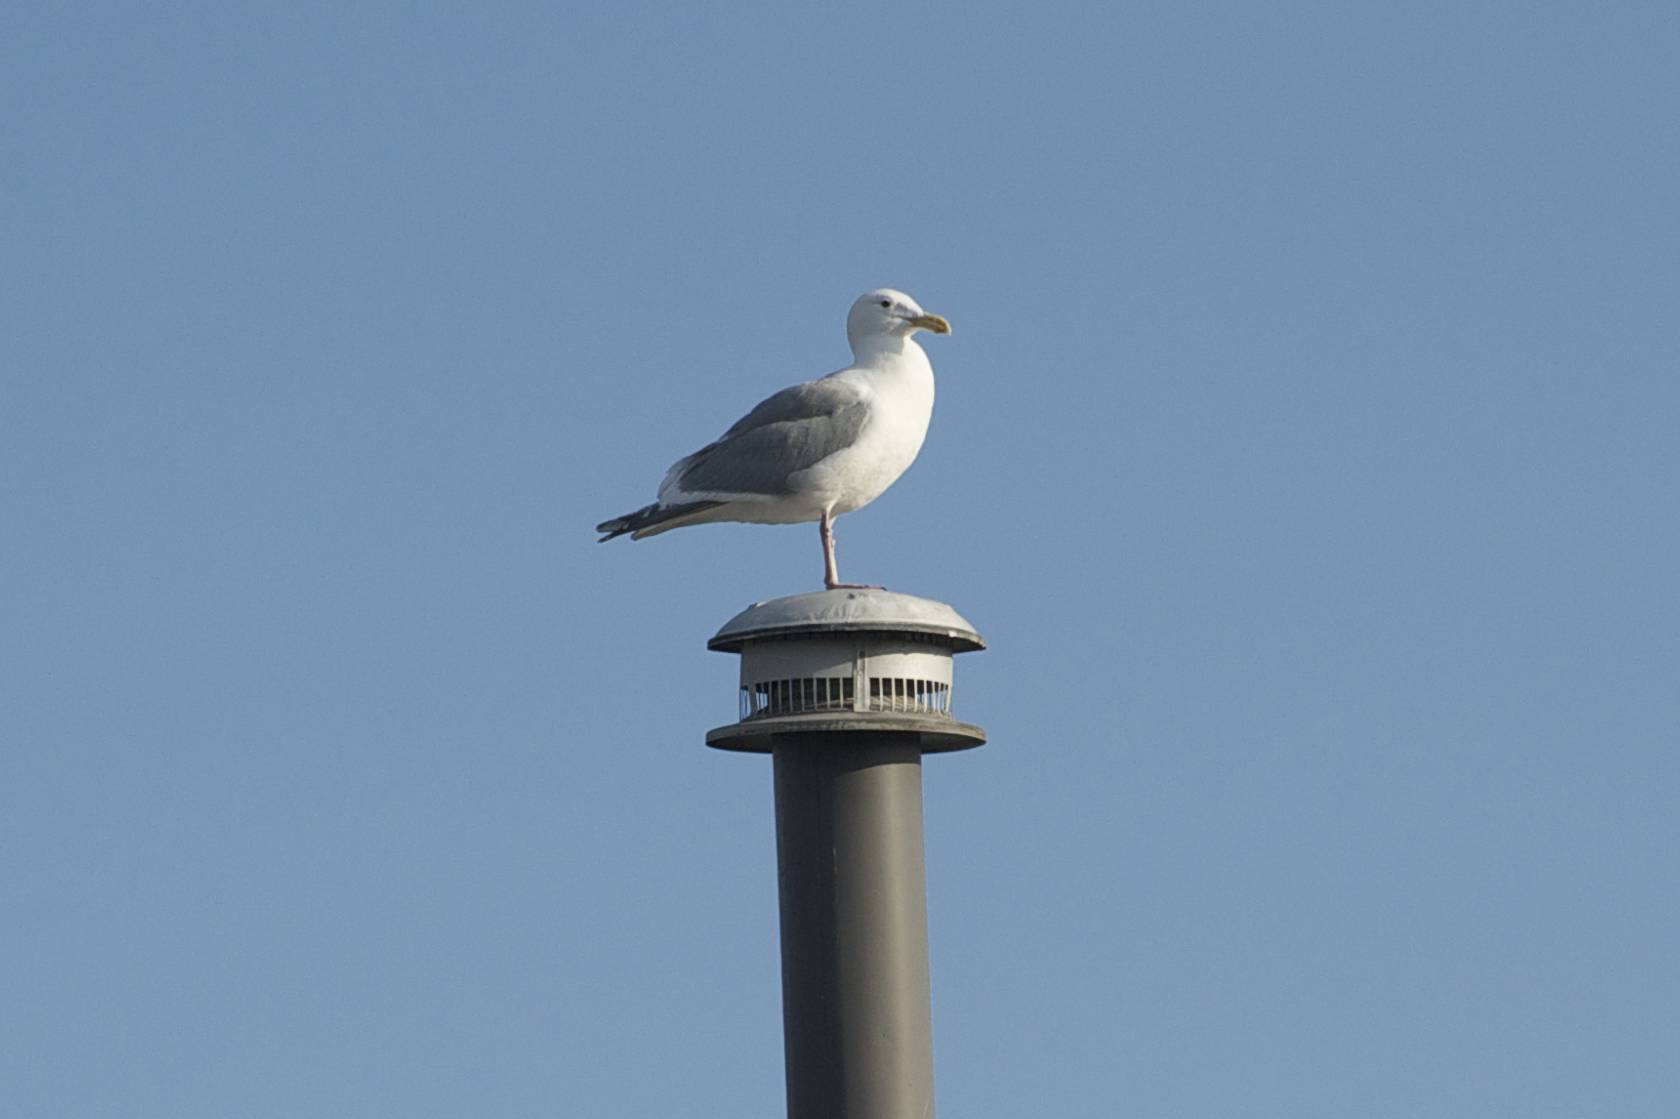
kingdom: Animalia
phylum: Chordata
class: Aves
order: Charadriiformes
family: Laridae
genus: Larus
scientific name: Larus
